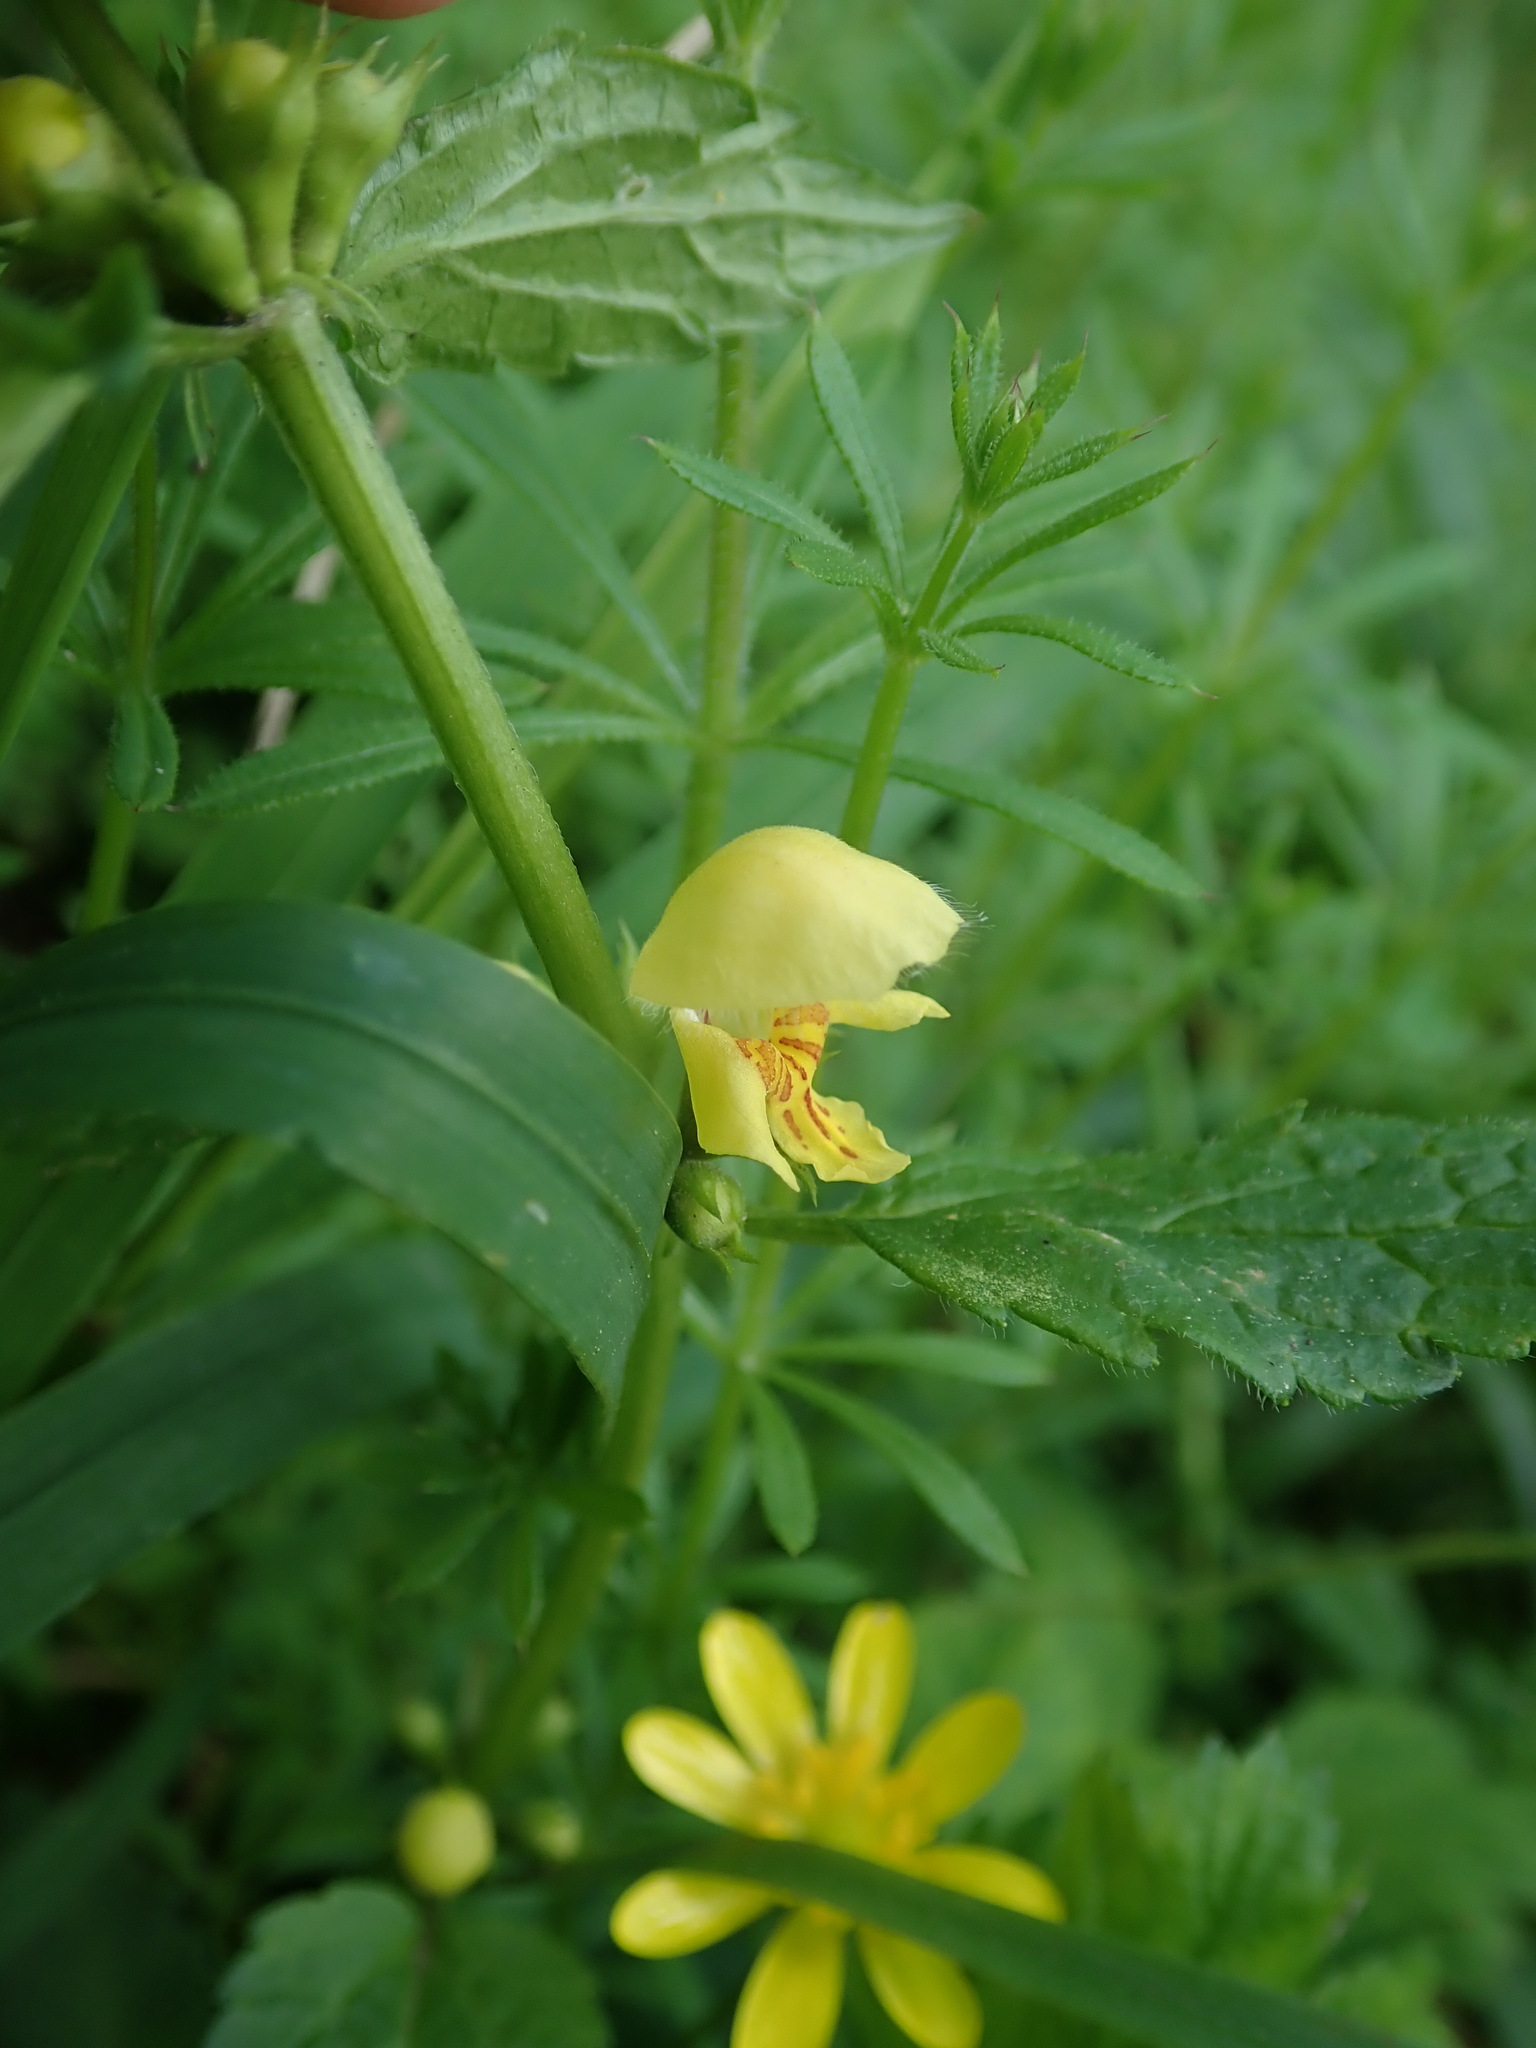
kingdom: Plantae
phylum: Tracheophyta
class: Magnoliopsida
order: Lamiales
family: Lamiaceae
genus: Lamium
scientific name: Lamium galeobdolon
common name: Yellow archangel
